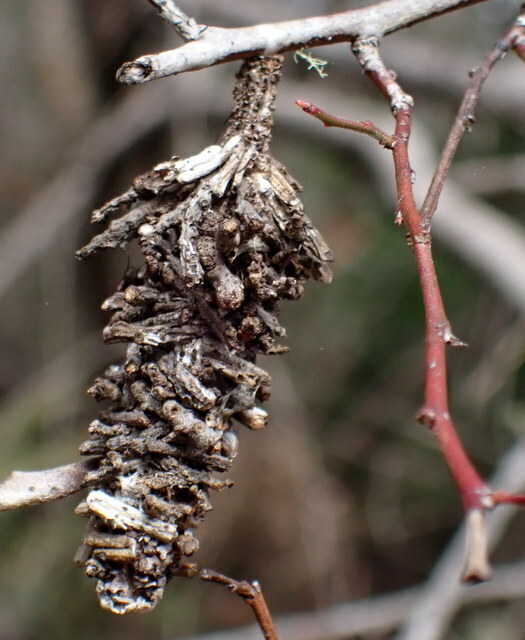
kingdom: Animalia
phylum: Arthropoda
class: Insecta
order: Lepidoptera
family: Psychidae
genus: Oiketicus
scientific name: Oiketicus
